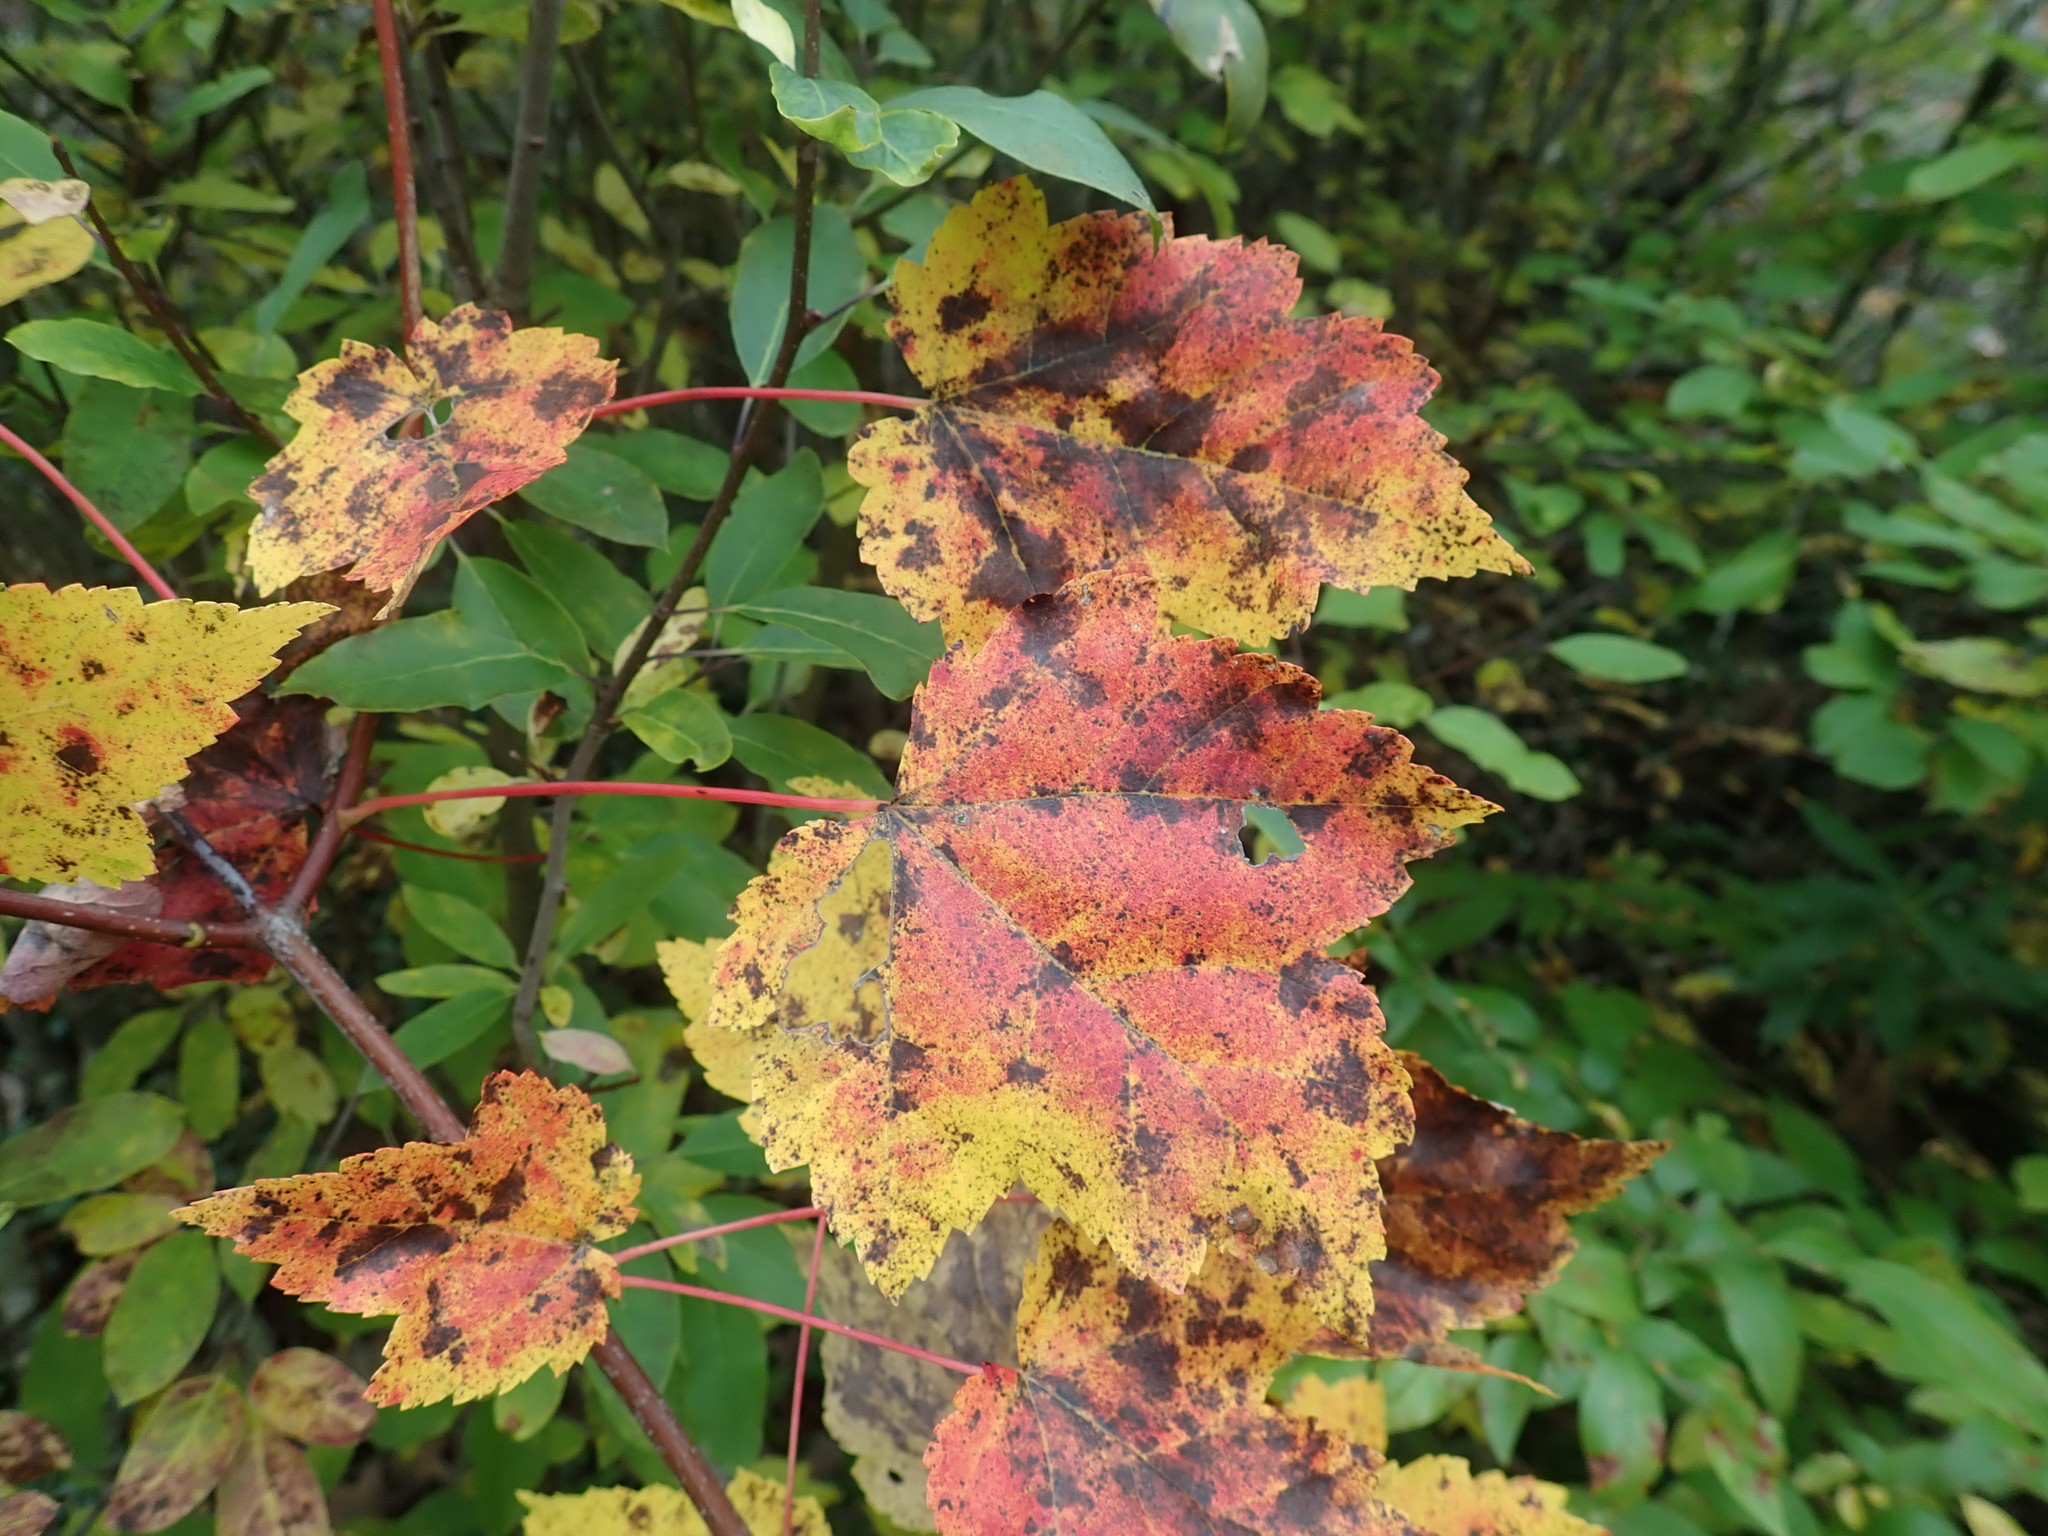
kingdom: Plantae
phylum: Tracheophyta
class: Magnoliopsida
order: Sapindales
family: Sapindaceae
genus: Acer
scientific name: Acer rubrum
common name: Red maple
